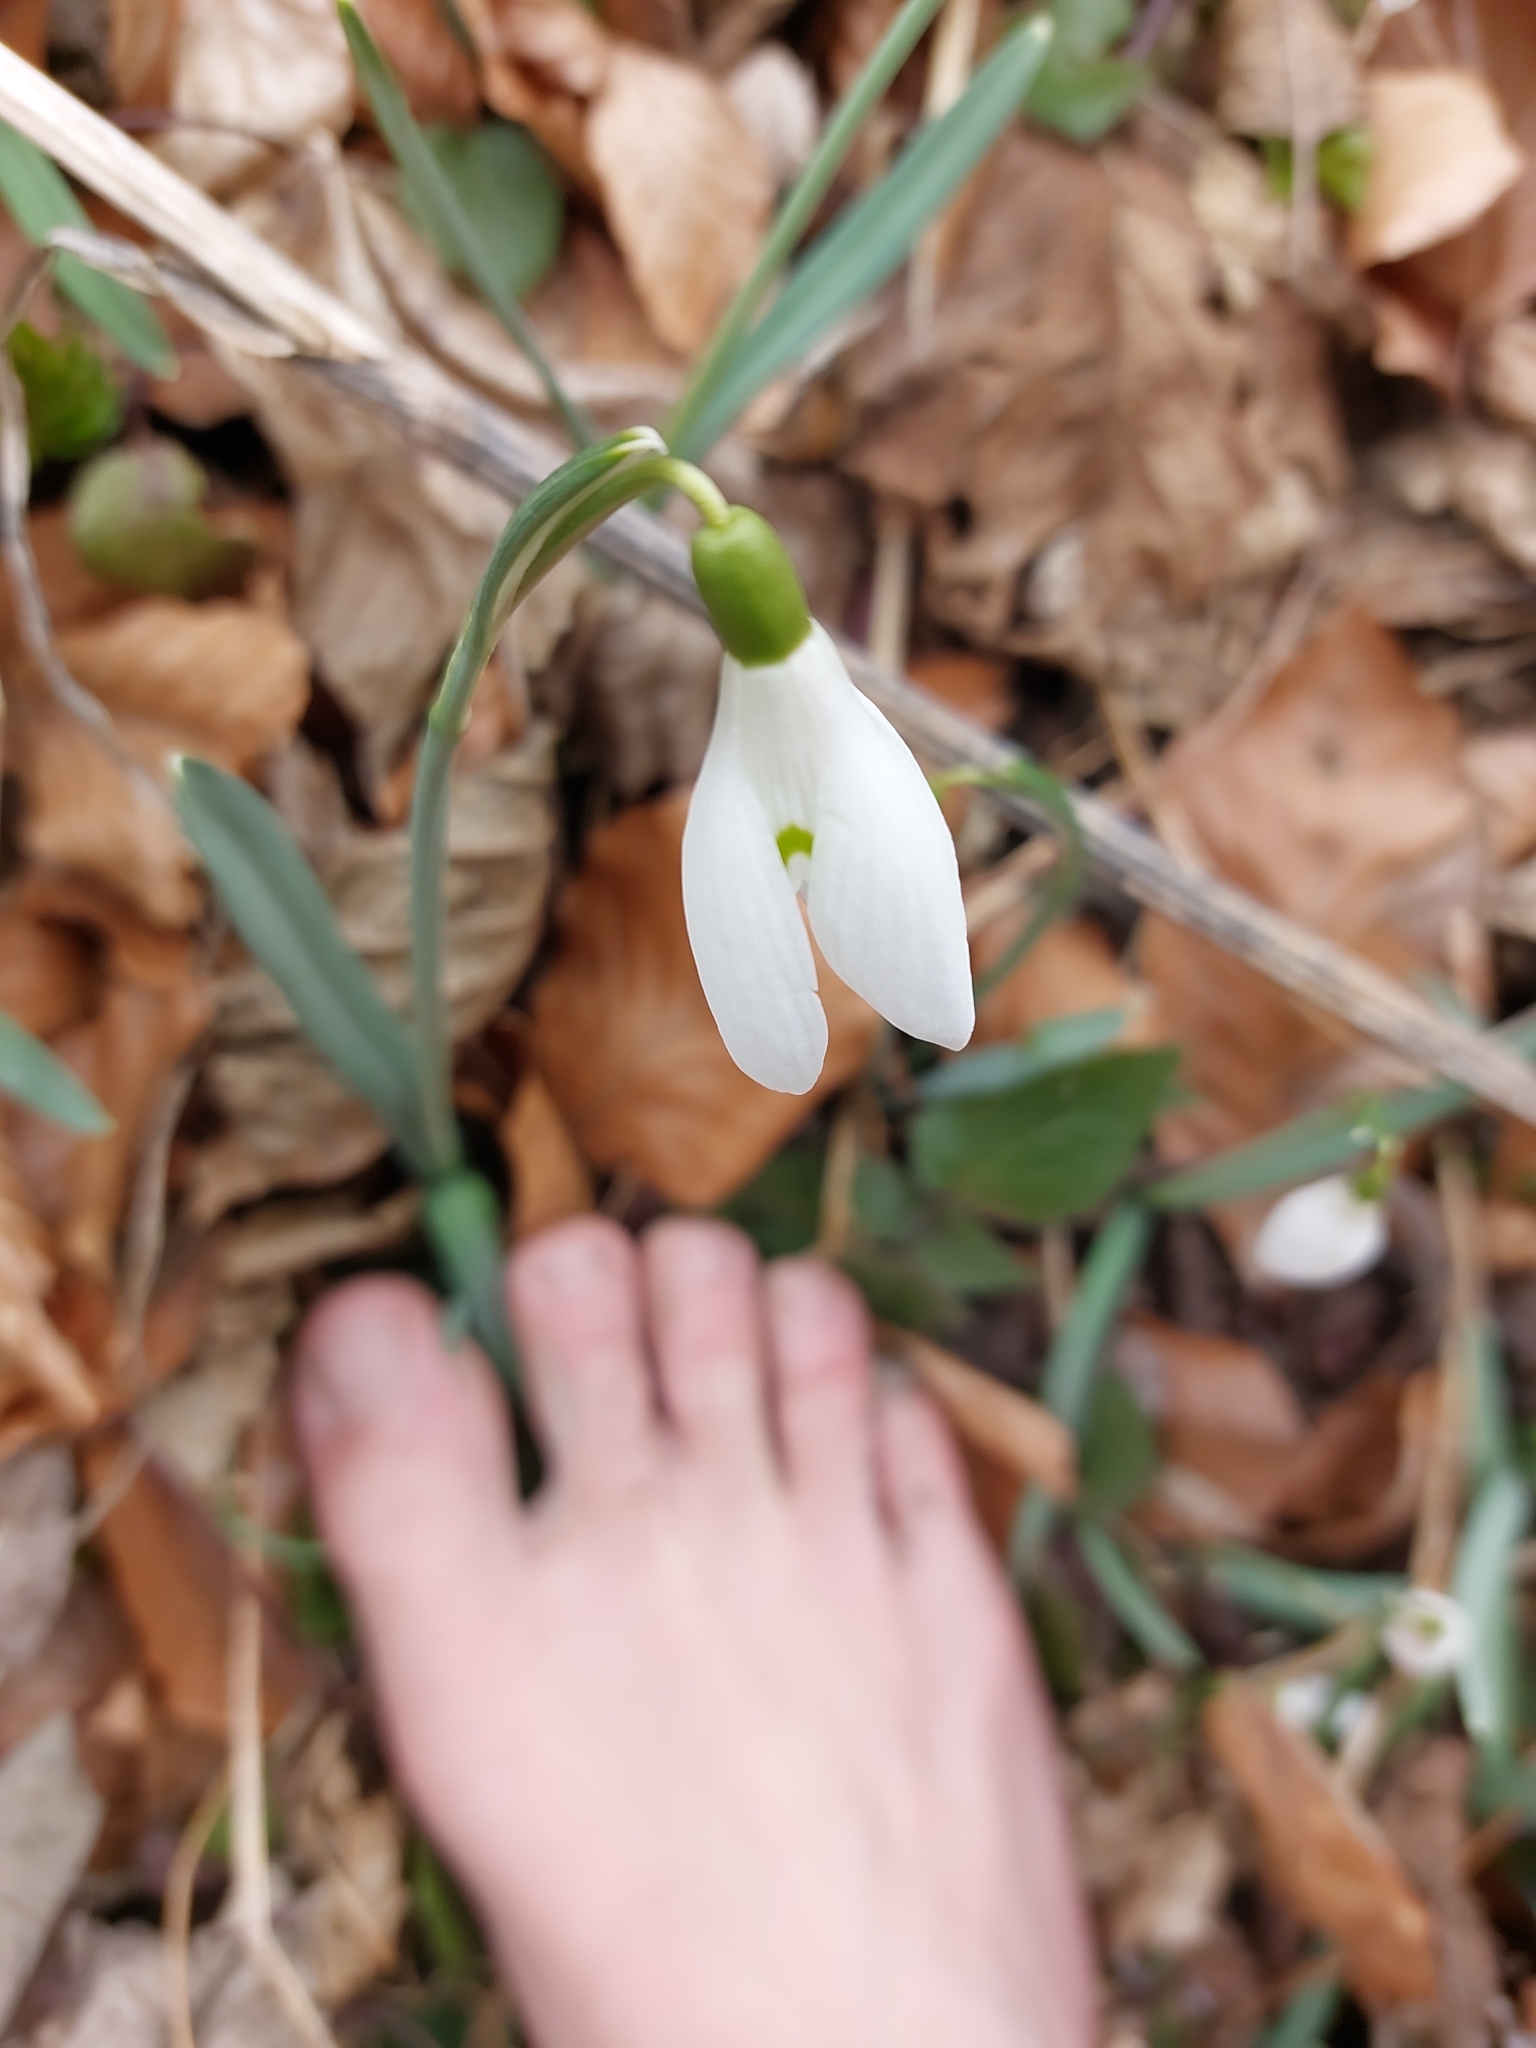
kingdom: Plantae
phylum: Tracheophyta
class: Liliopsida
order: Asparagales
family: Amaryllidaceae
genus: Galanthus
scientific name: Galanthus nivalis
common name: Snowdrop
